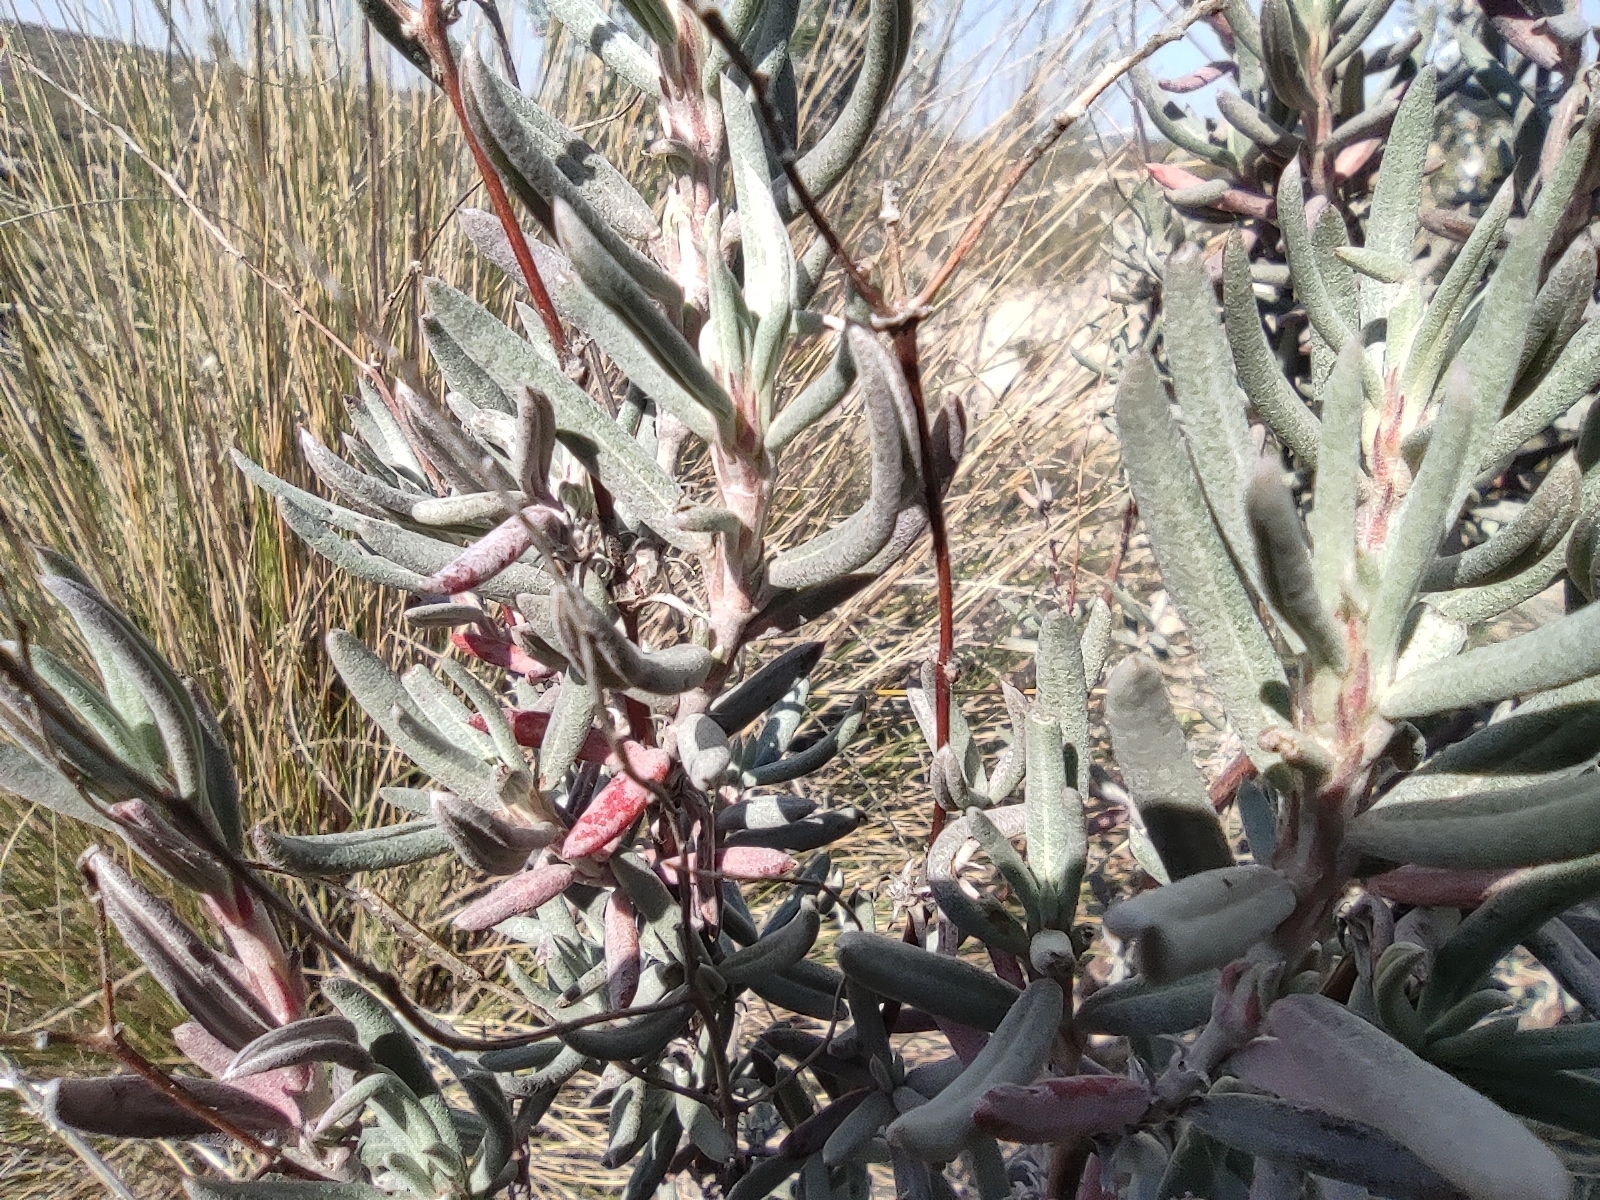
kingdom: Plantae
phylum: Tracheophyta
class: Magnoliopsida
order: Malvales
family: Cistaceae
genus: Helianthemum
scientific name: Helianthemum syriacum
